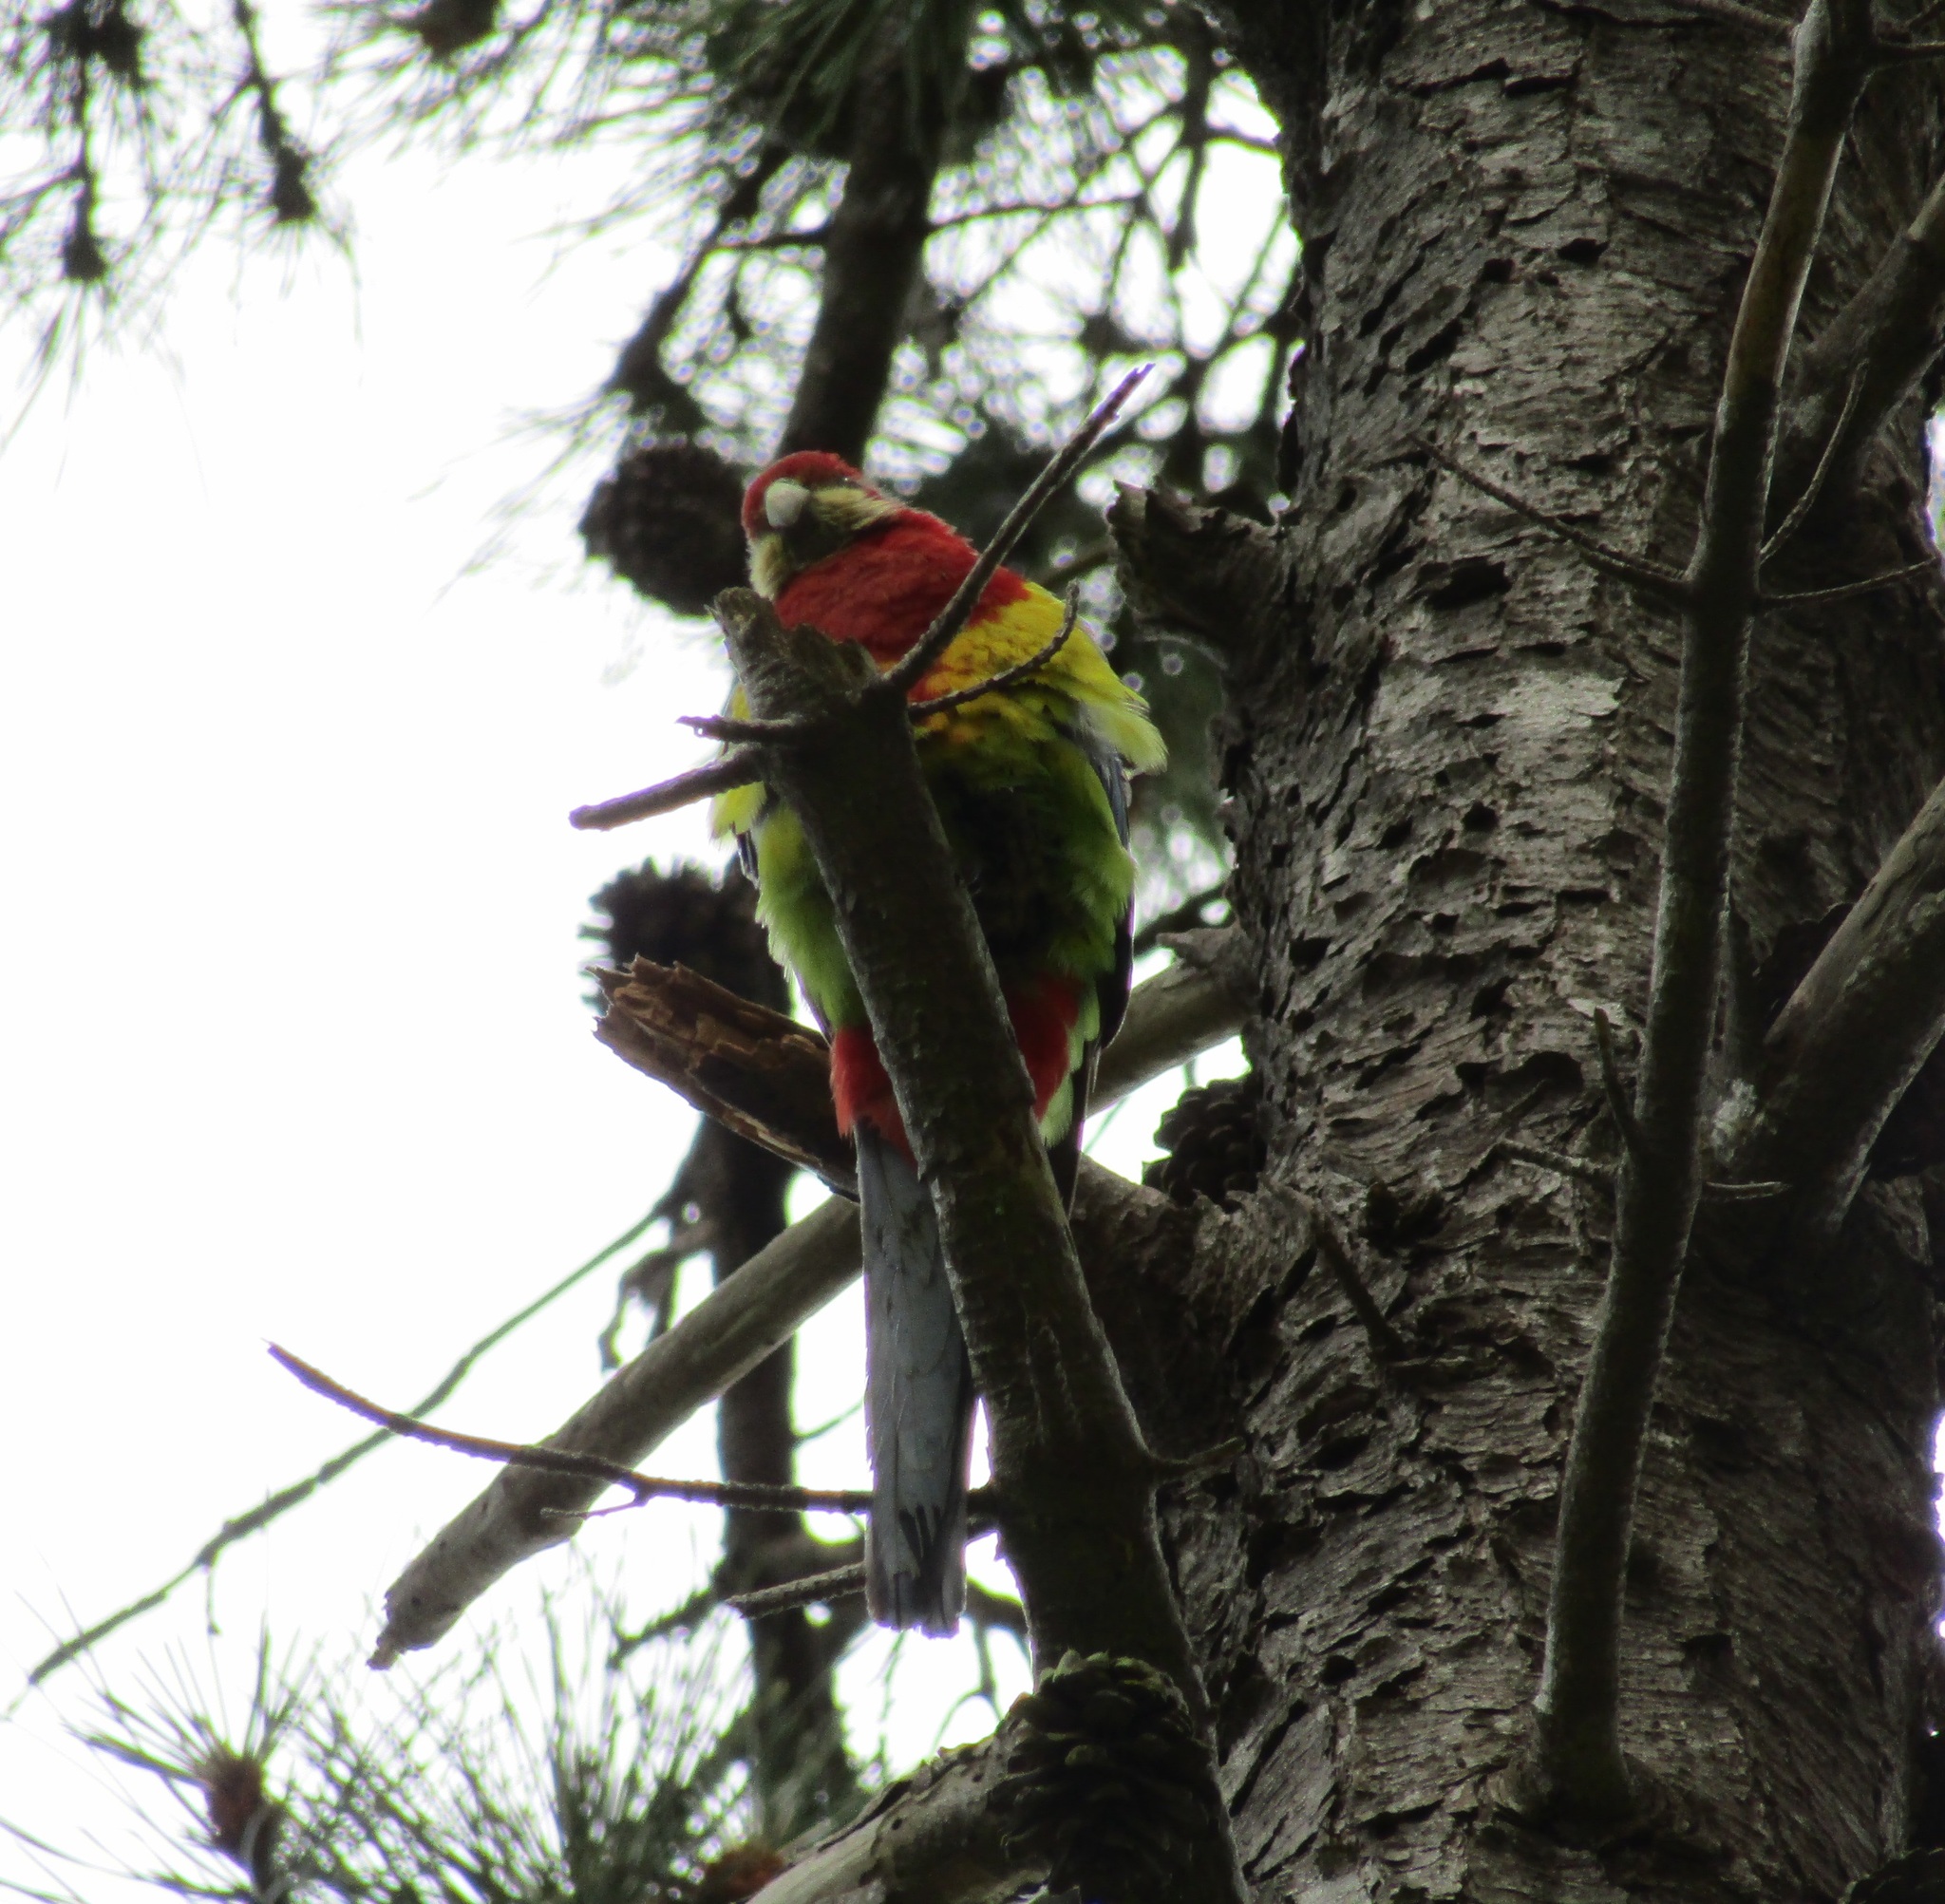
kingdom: Animalia
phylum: Chordata
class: Aves
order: Psittaciformes
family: Psittacidae
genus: Platycercus
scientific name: Platycercus eximius
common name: Eastern rosella
